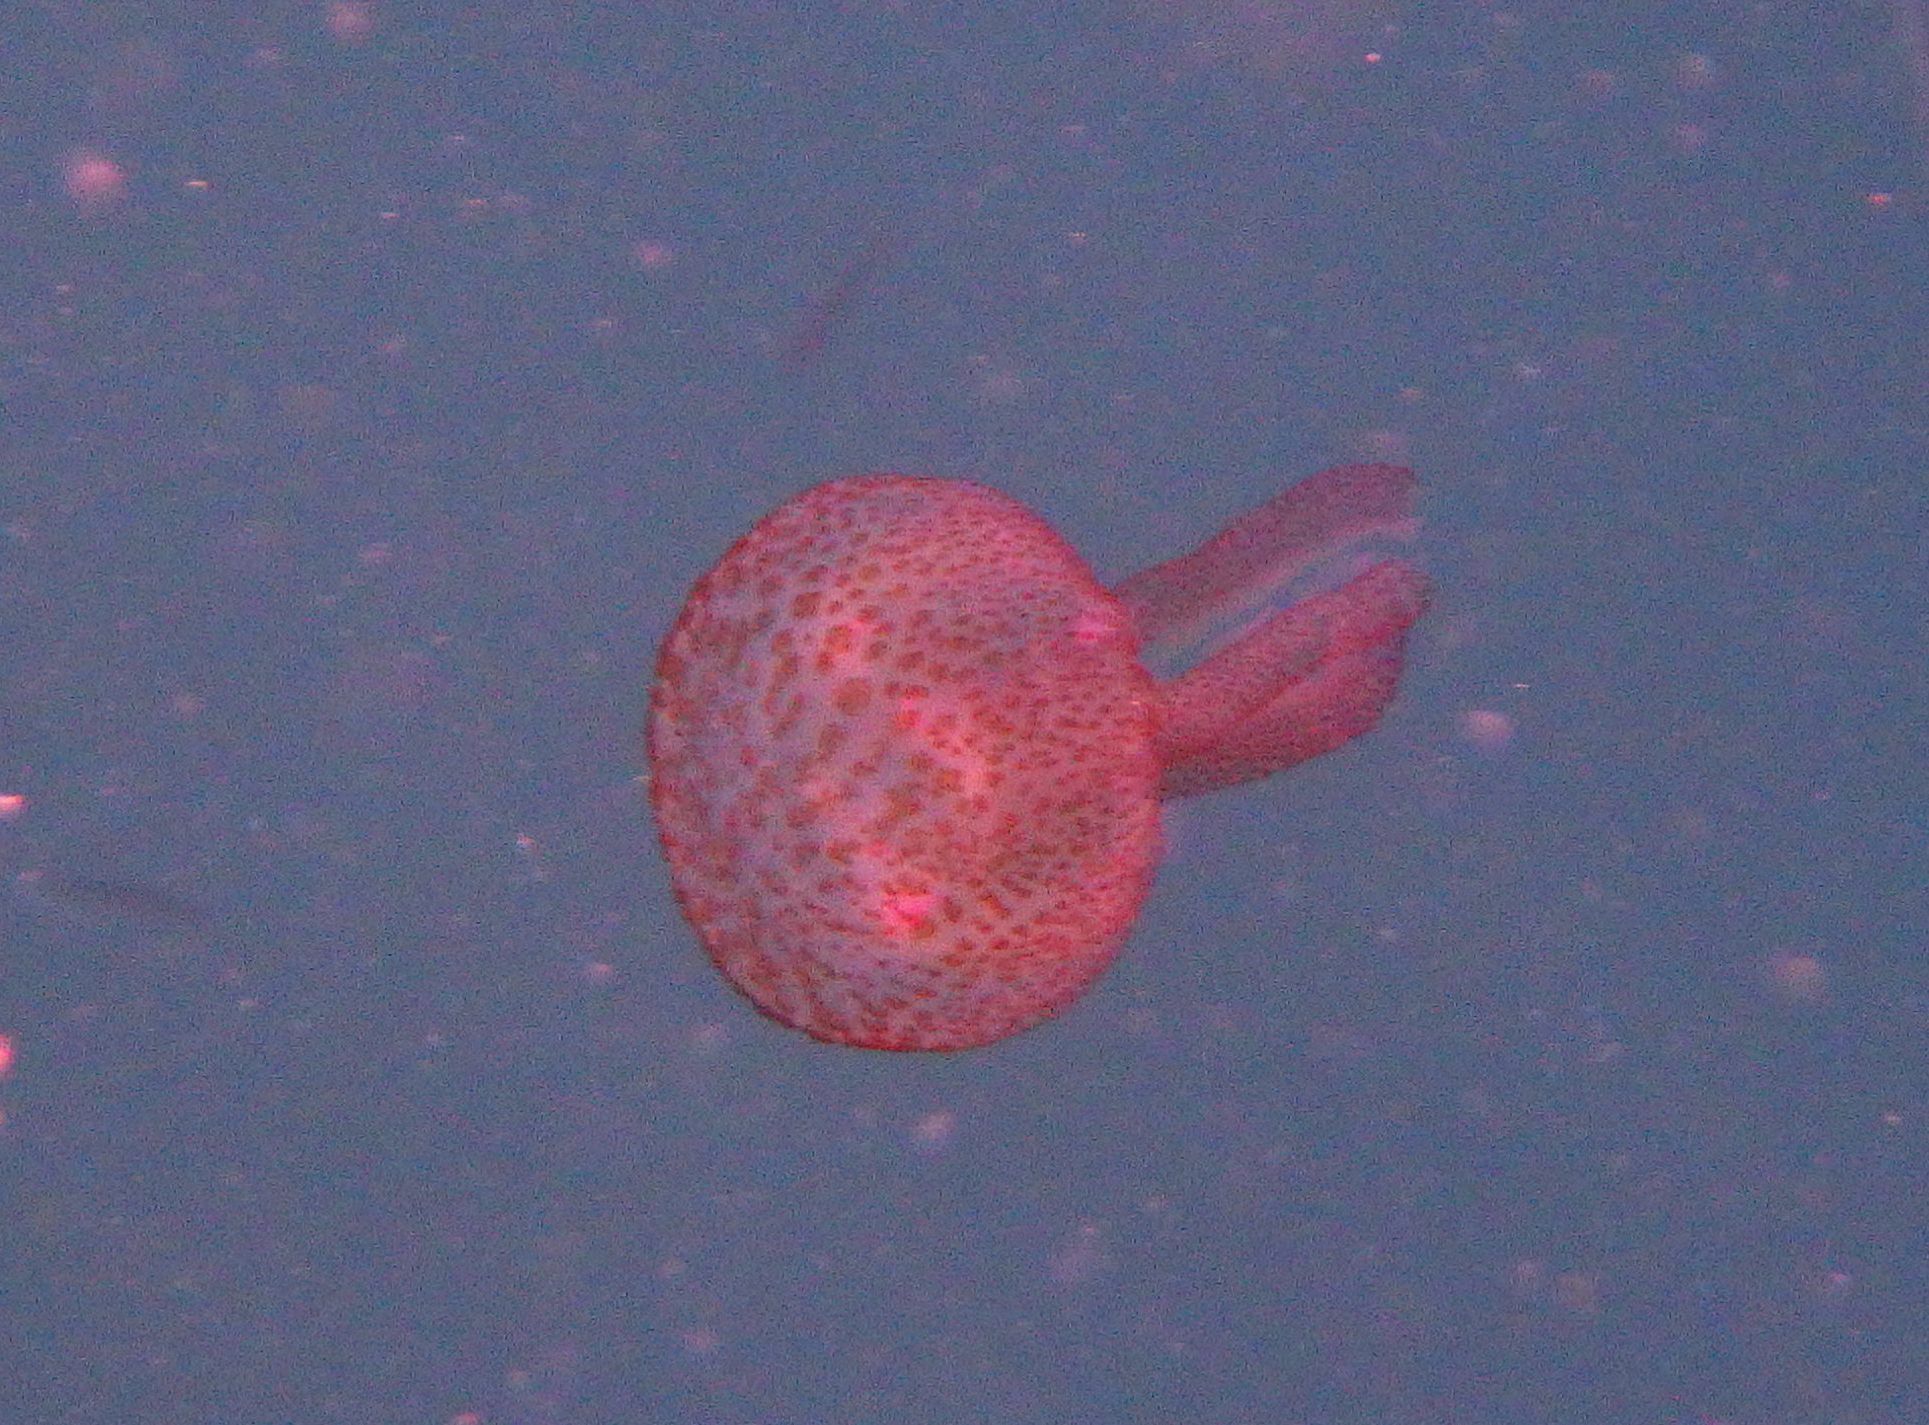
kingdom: Animalia
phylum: Cnidaria
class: Scyphozoa
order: Semaeostomeae
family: Pelagiidae
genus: Pelagia
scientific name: Pelagia noctiluca
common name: Mauve stinger
